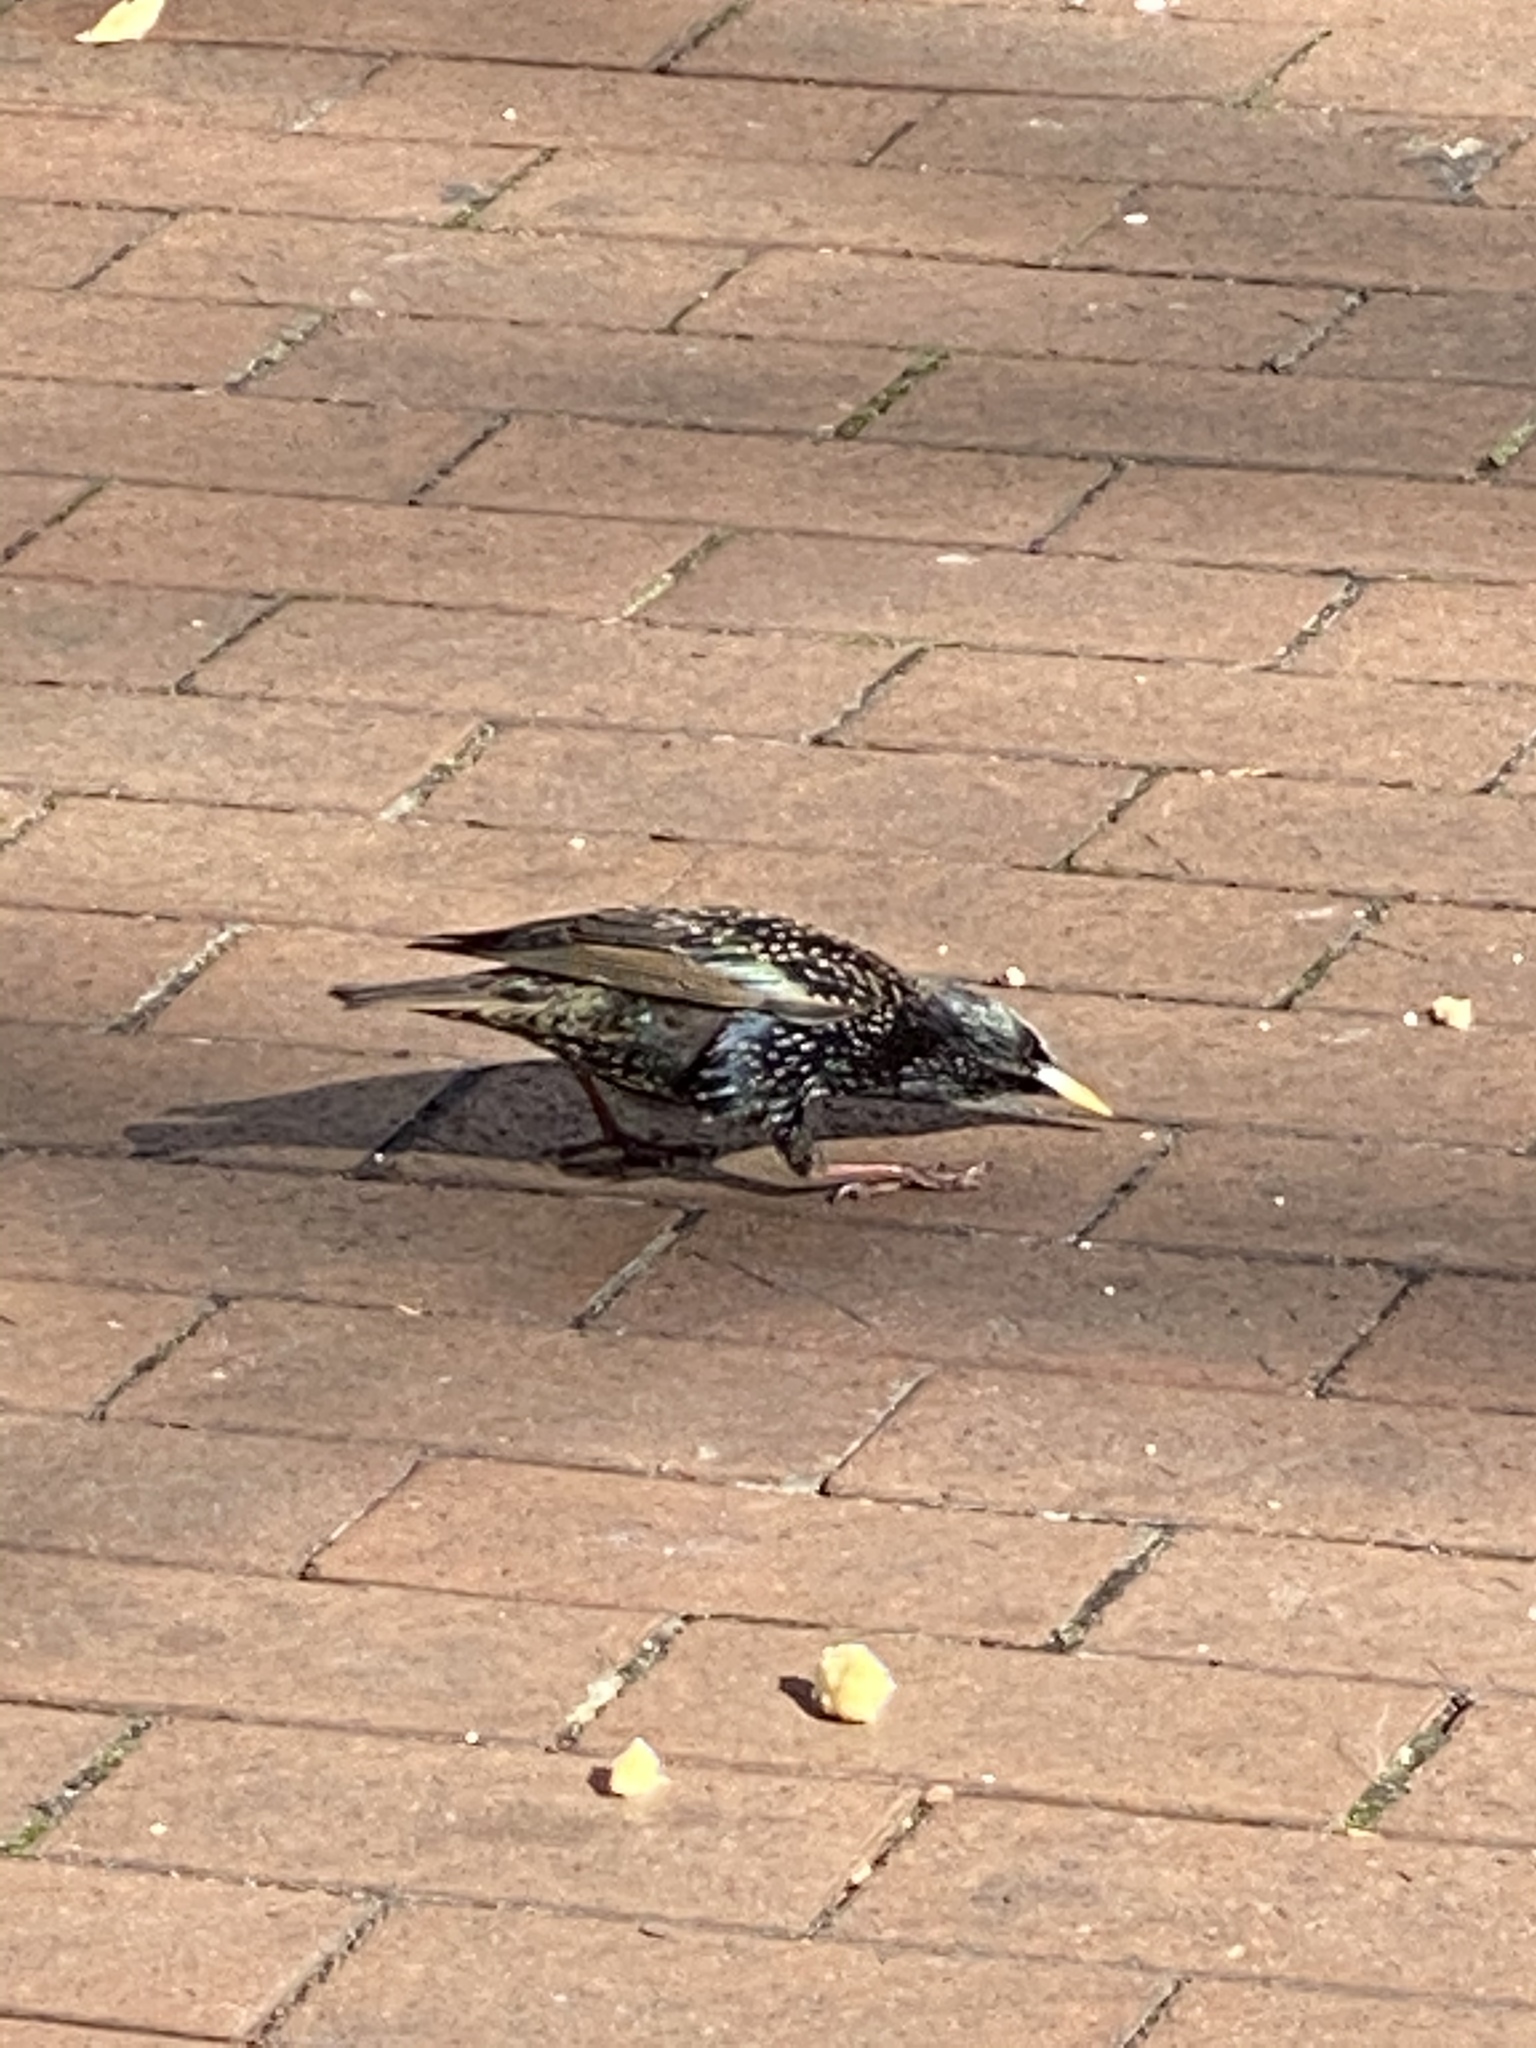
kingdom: Animalia
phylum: Chordata
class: Aves
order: Passeriformes
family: Sturnidae
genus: Sturnus
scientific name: Sturnus vulgaris
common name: Common starling
